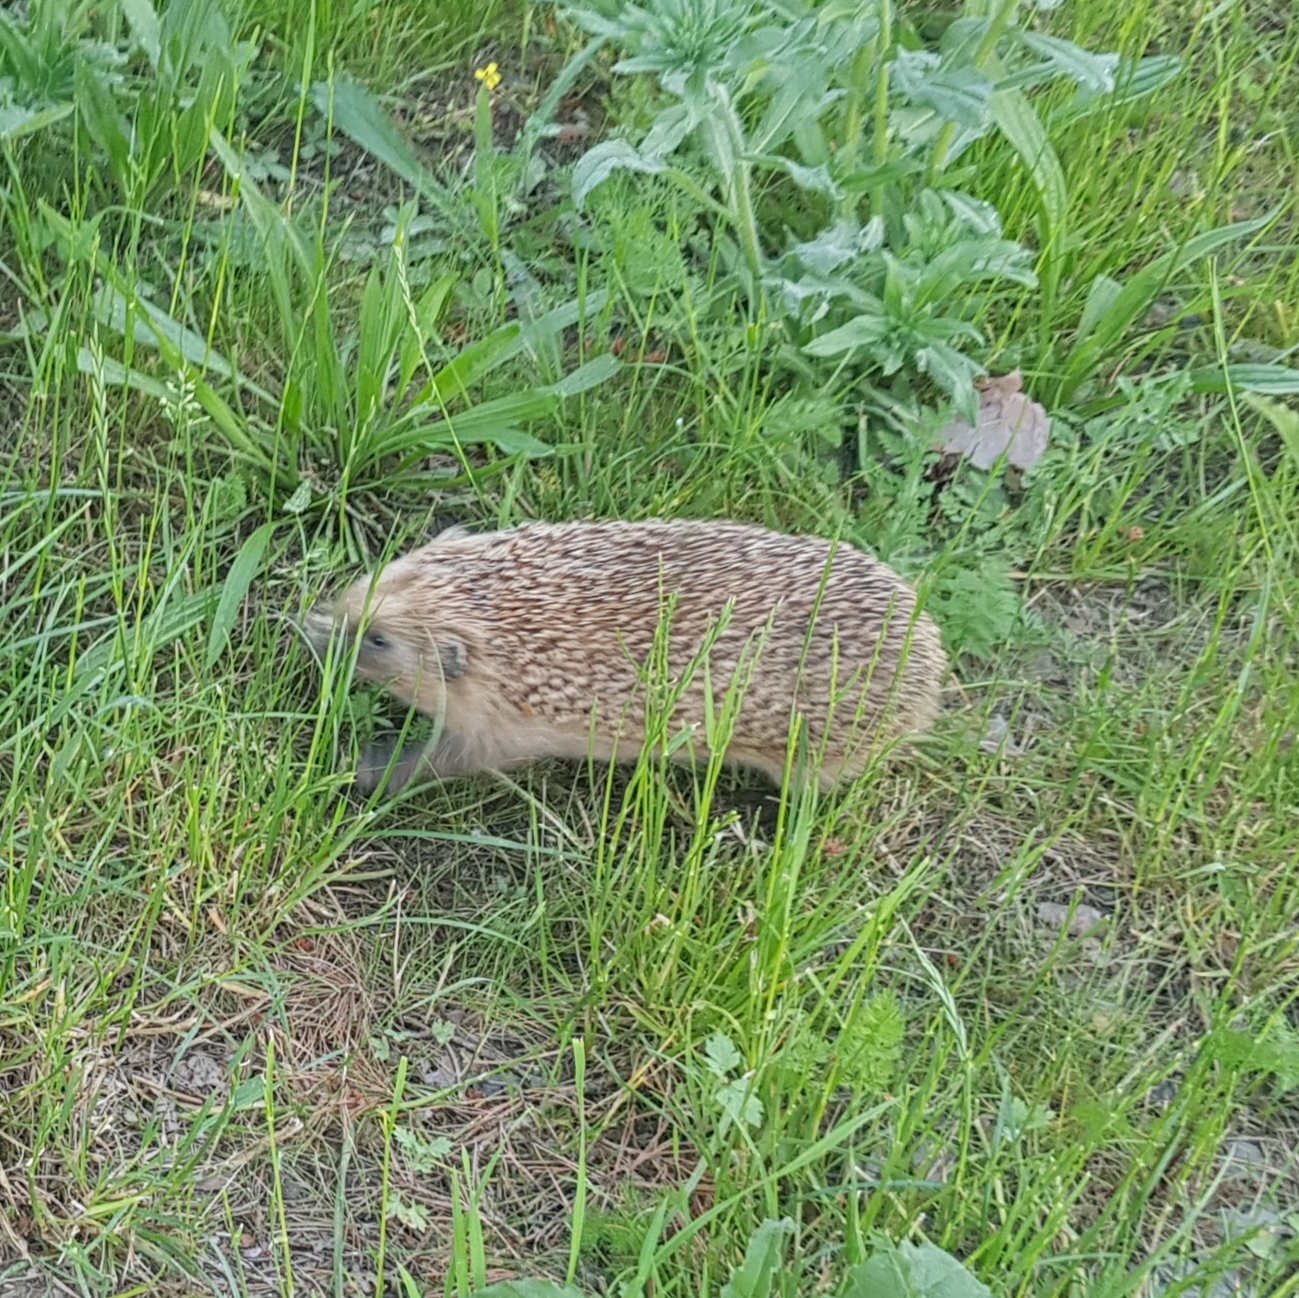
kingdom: Animalia
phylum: Chordata
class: Mammalia
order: Erinaceomorpha
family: Erinaceidae
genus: Erinaceus
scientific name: Erinaceus europaeus
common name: West european hedgehog
